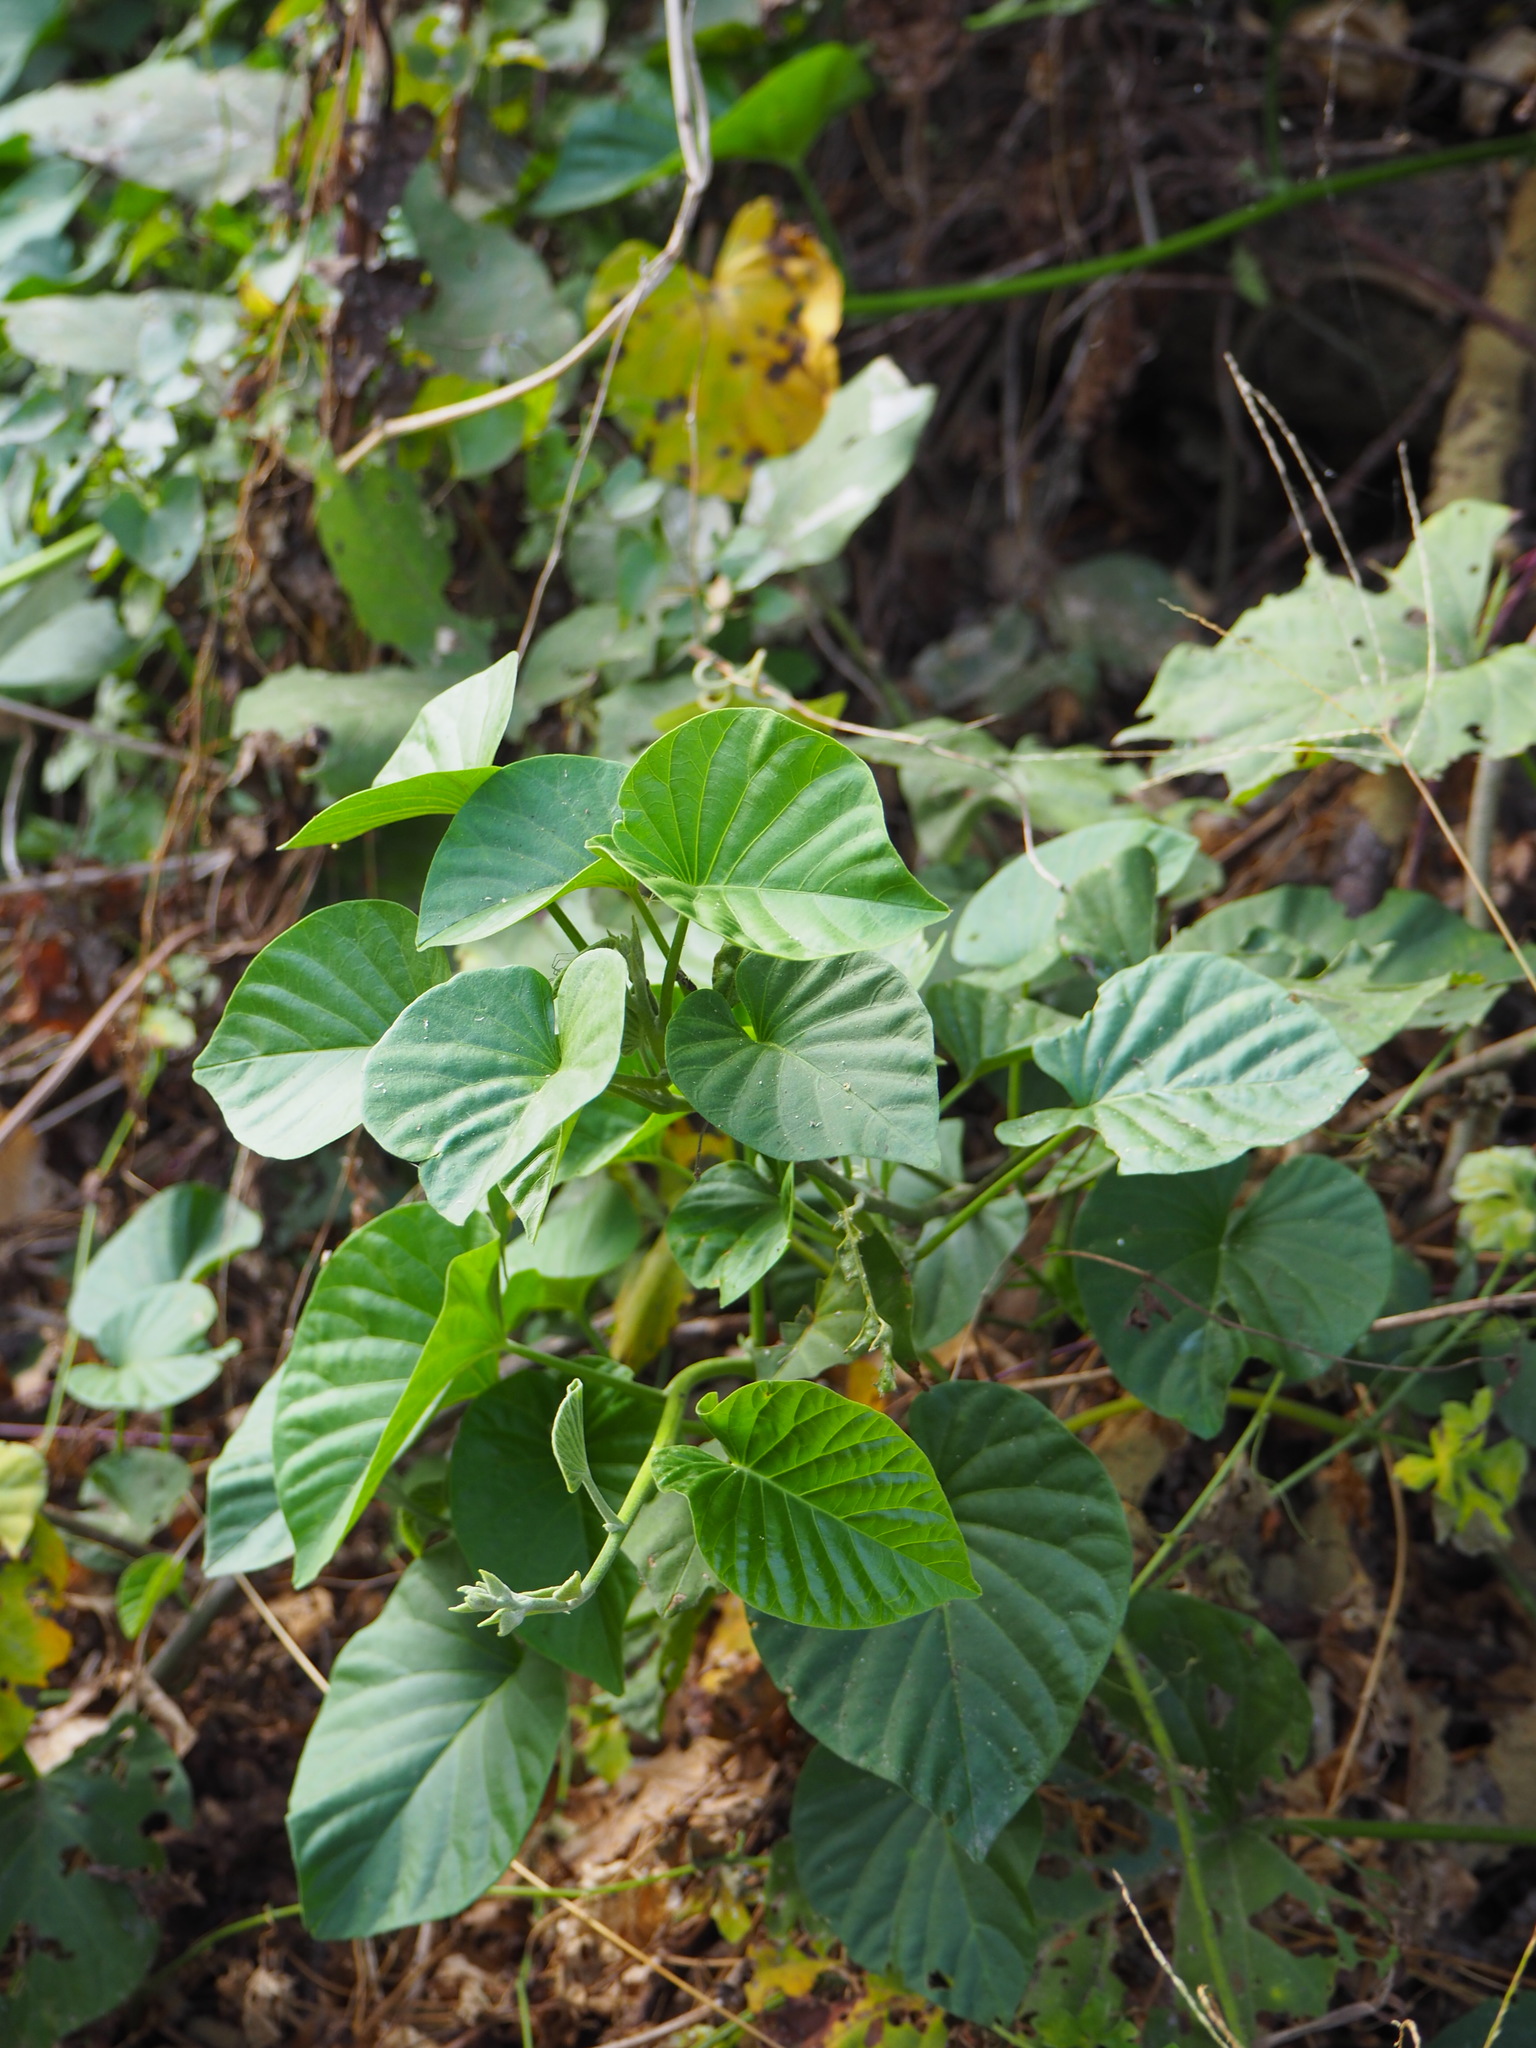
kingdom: Plantae
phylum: Tracheophyta
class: Magnoliopsida
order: Solanales
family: Convolvulaceae
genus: Stictocardia
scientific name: Stictocardia tiliifolia
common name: Spottedheart
